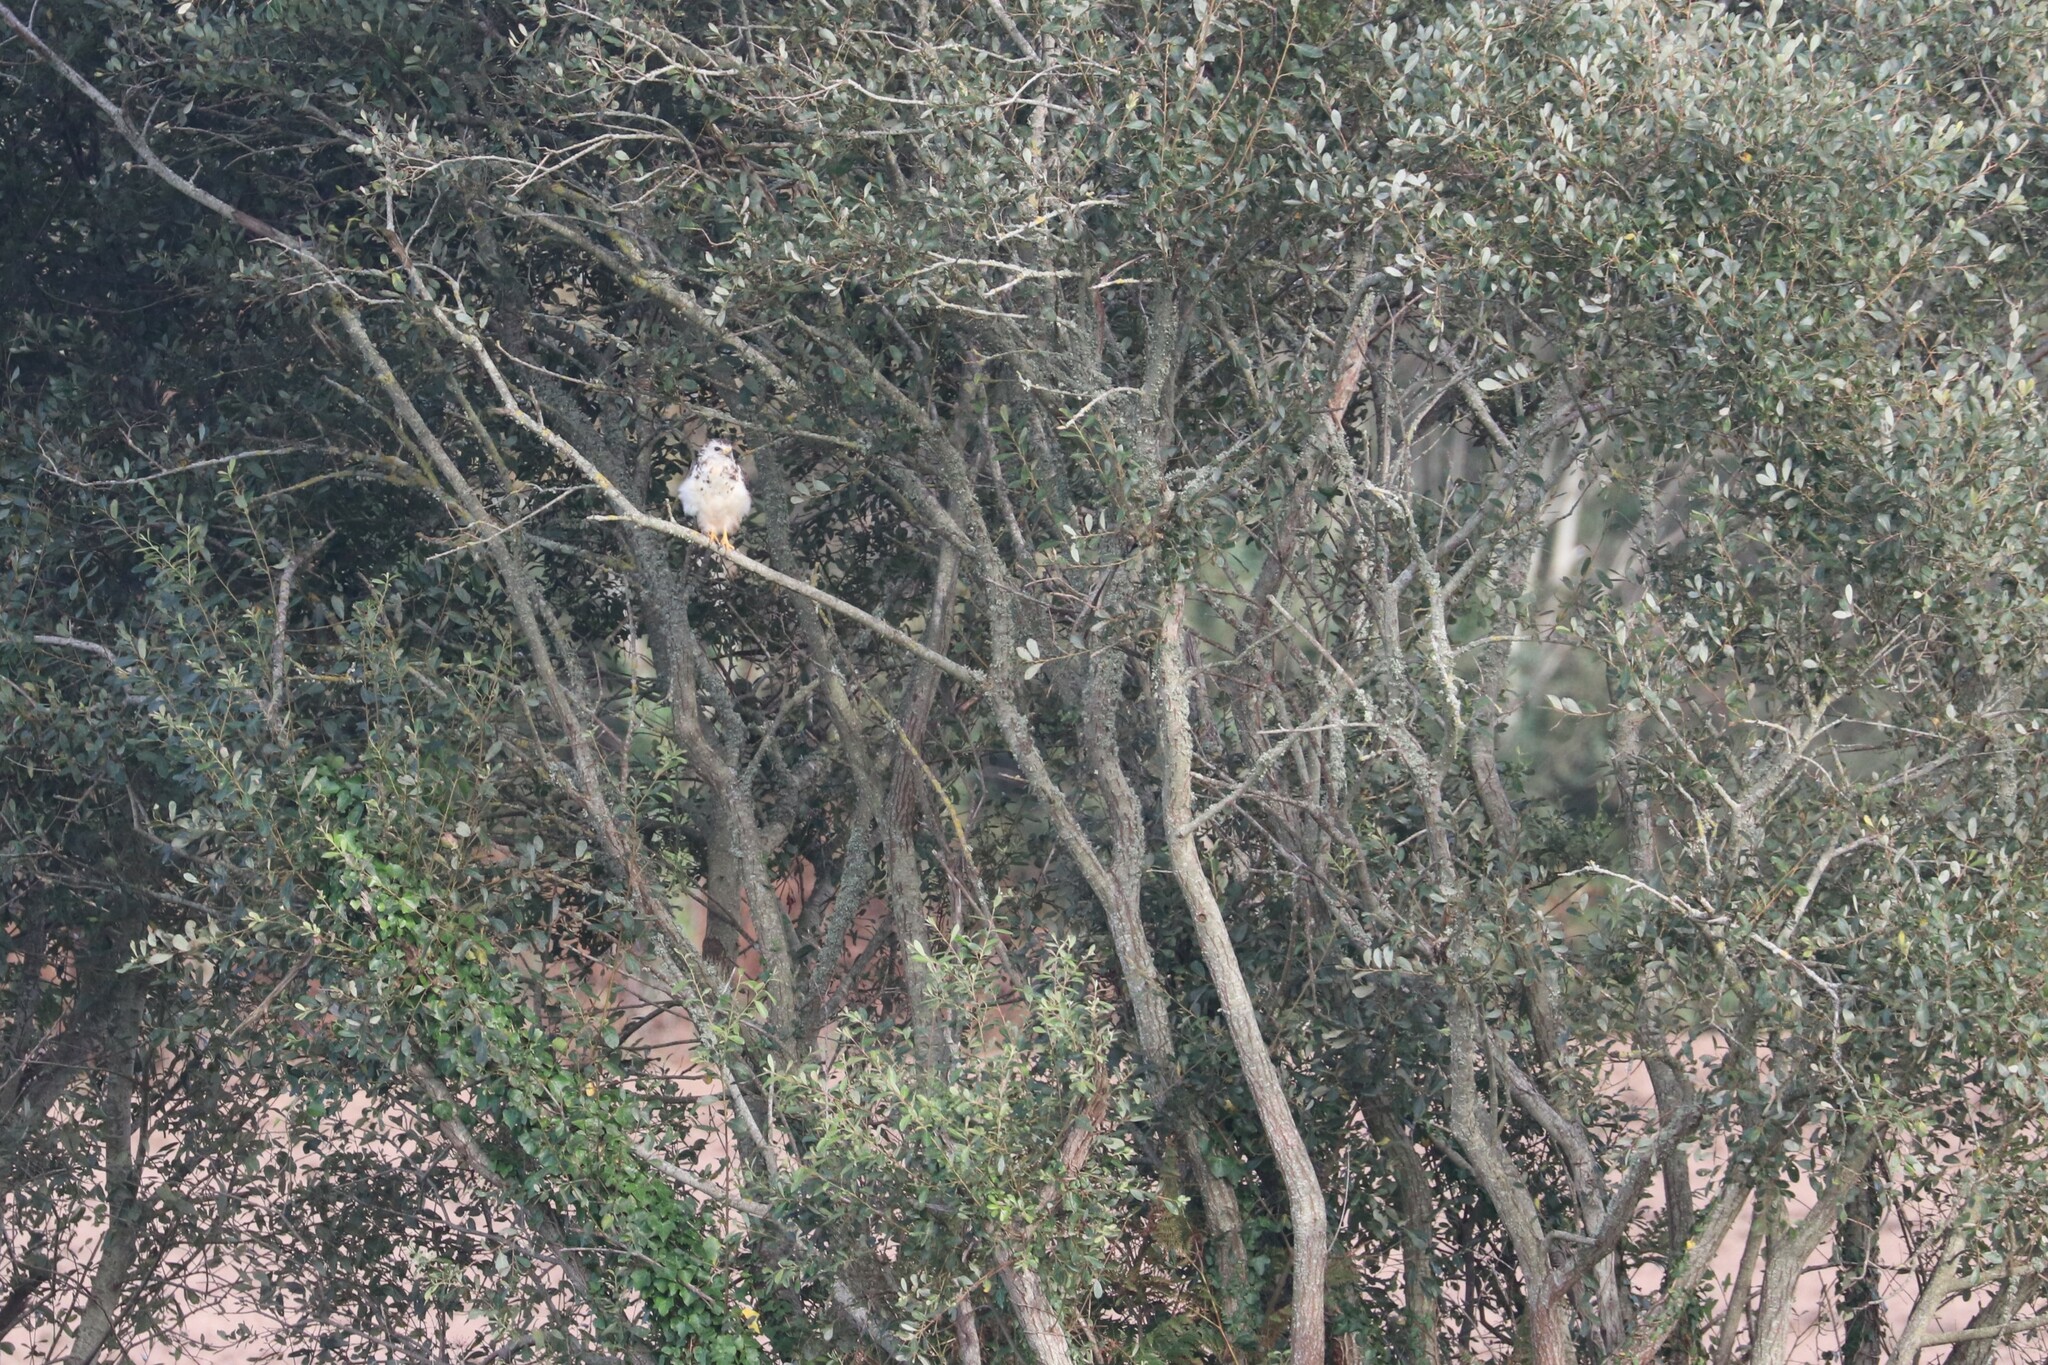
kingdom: Animalia
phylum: Chordata
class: Aves
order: Accipitriformes
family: Accipitridae
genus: Buteo
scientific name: Buteo buteo
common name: Common buzzard
